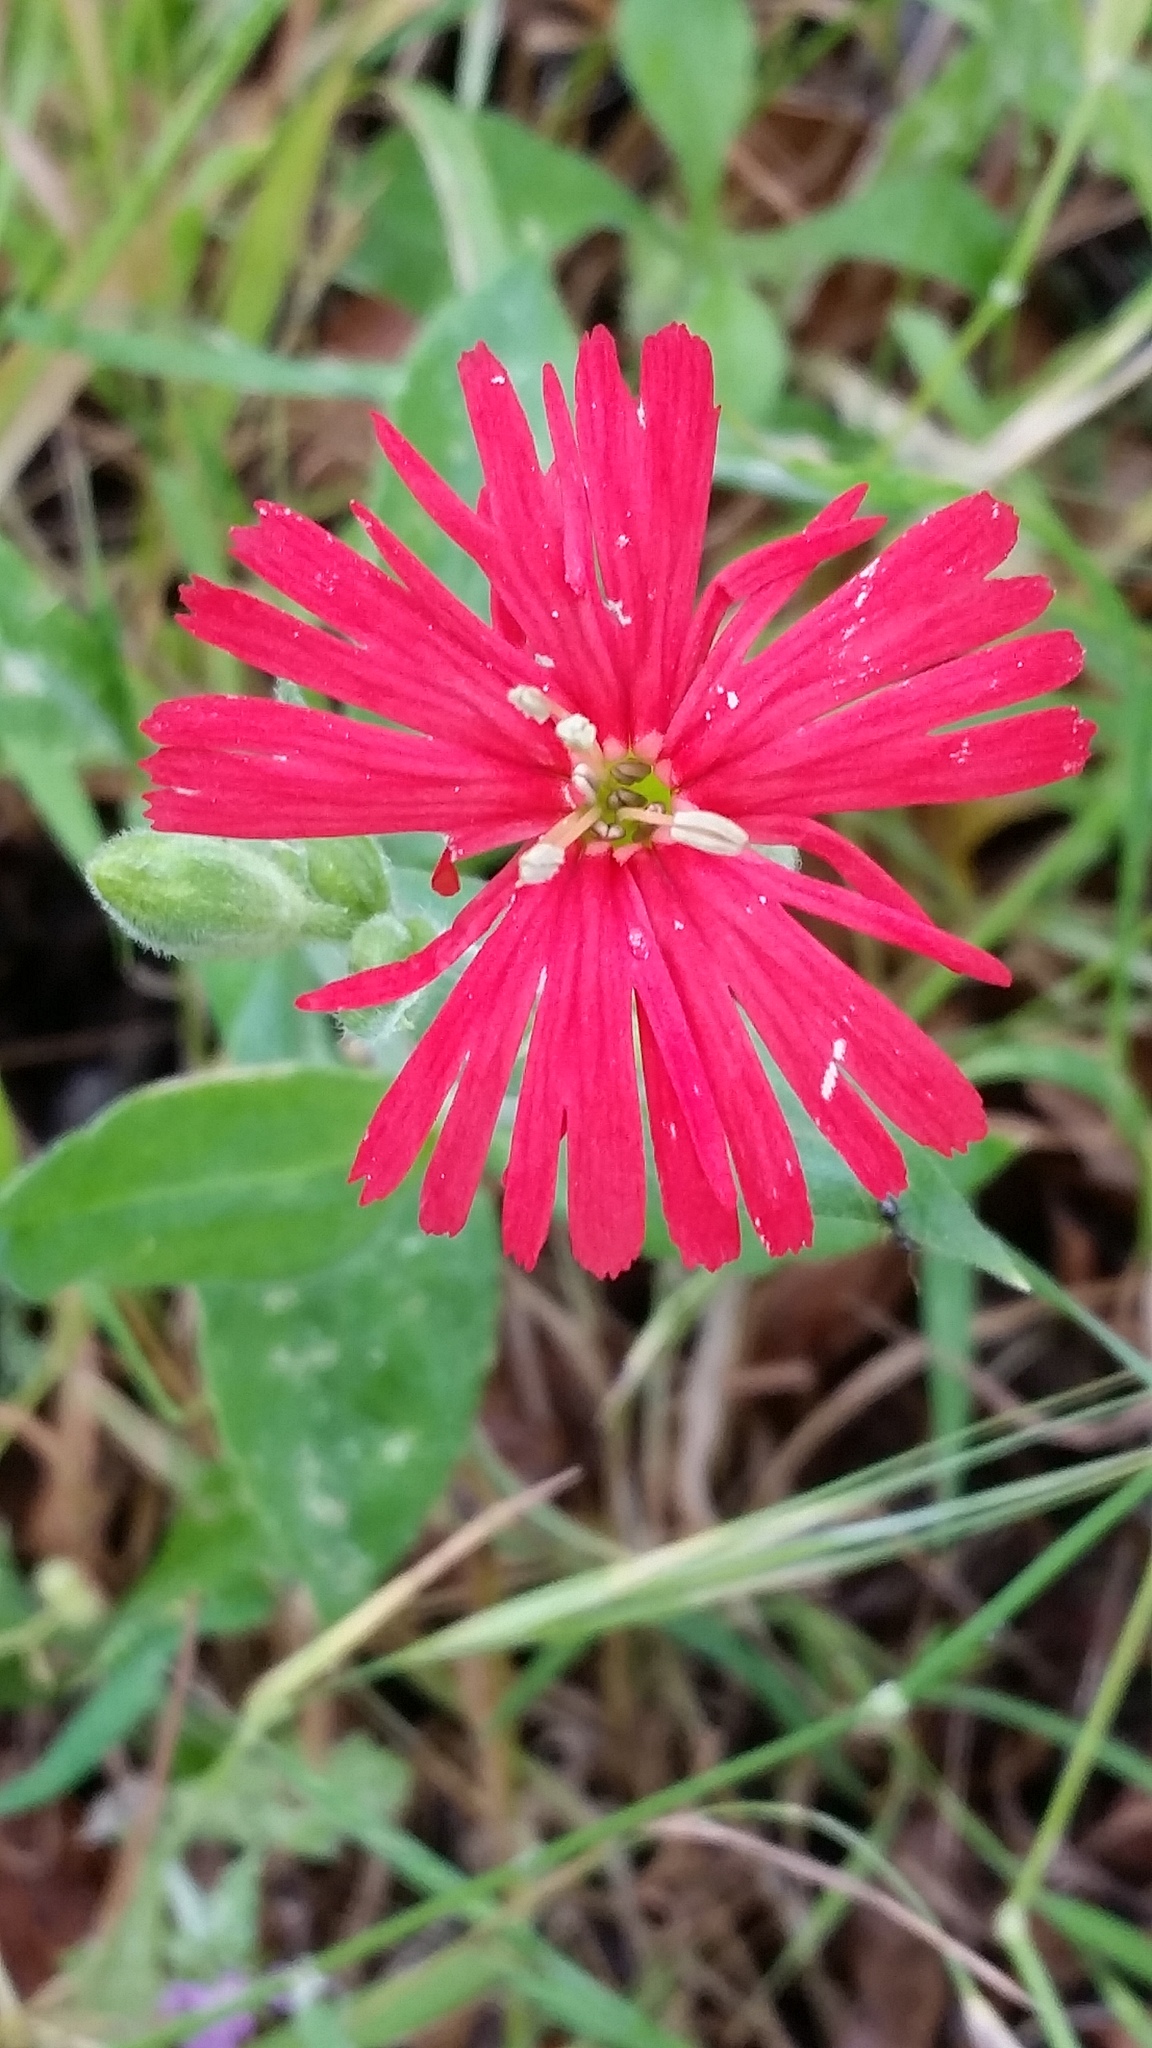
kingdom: Plantae
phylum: Tracheophyta
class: Magnoliopsida
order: Caryophyllales
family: Caryophyllaceae
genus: Silene
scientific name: Silene laciniata
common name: Indian-pink
